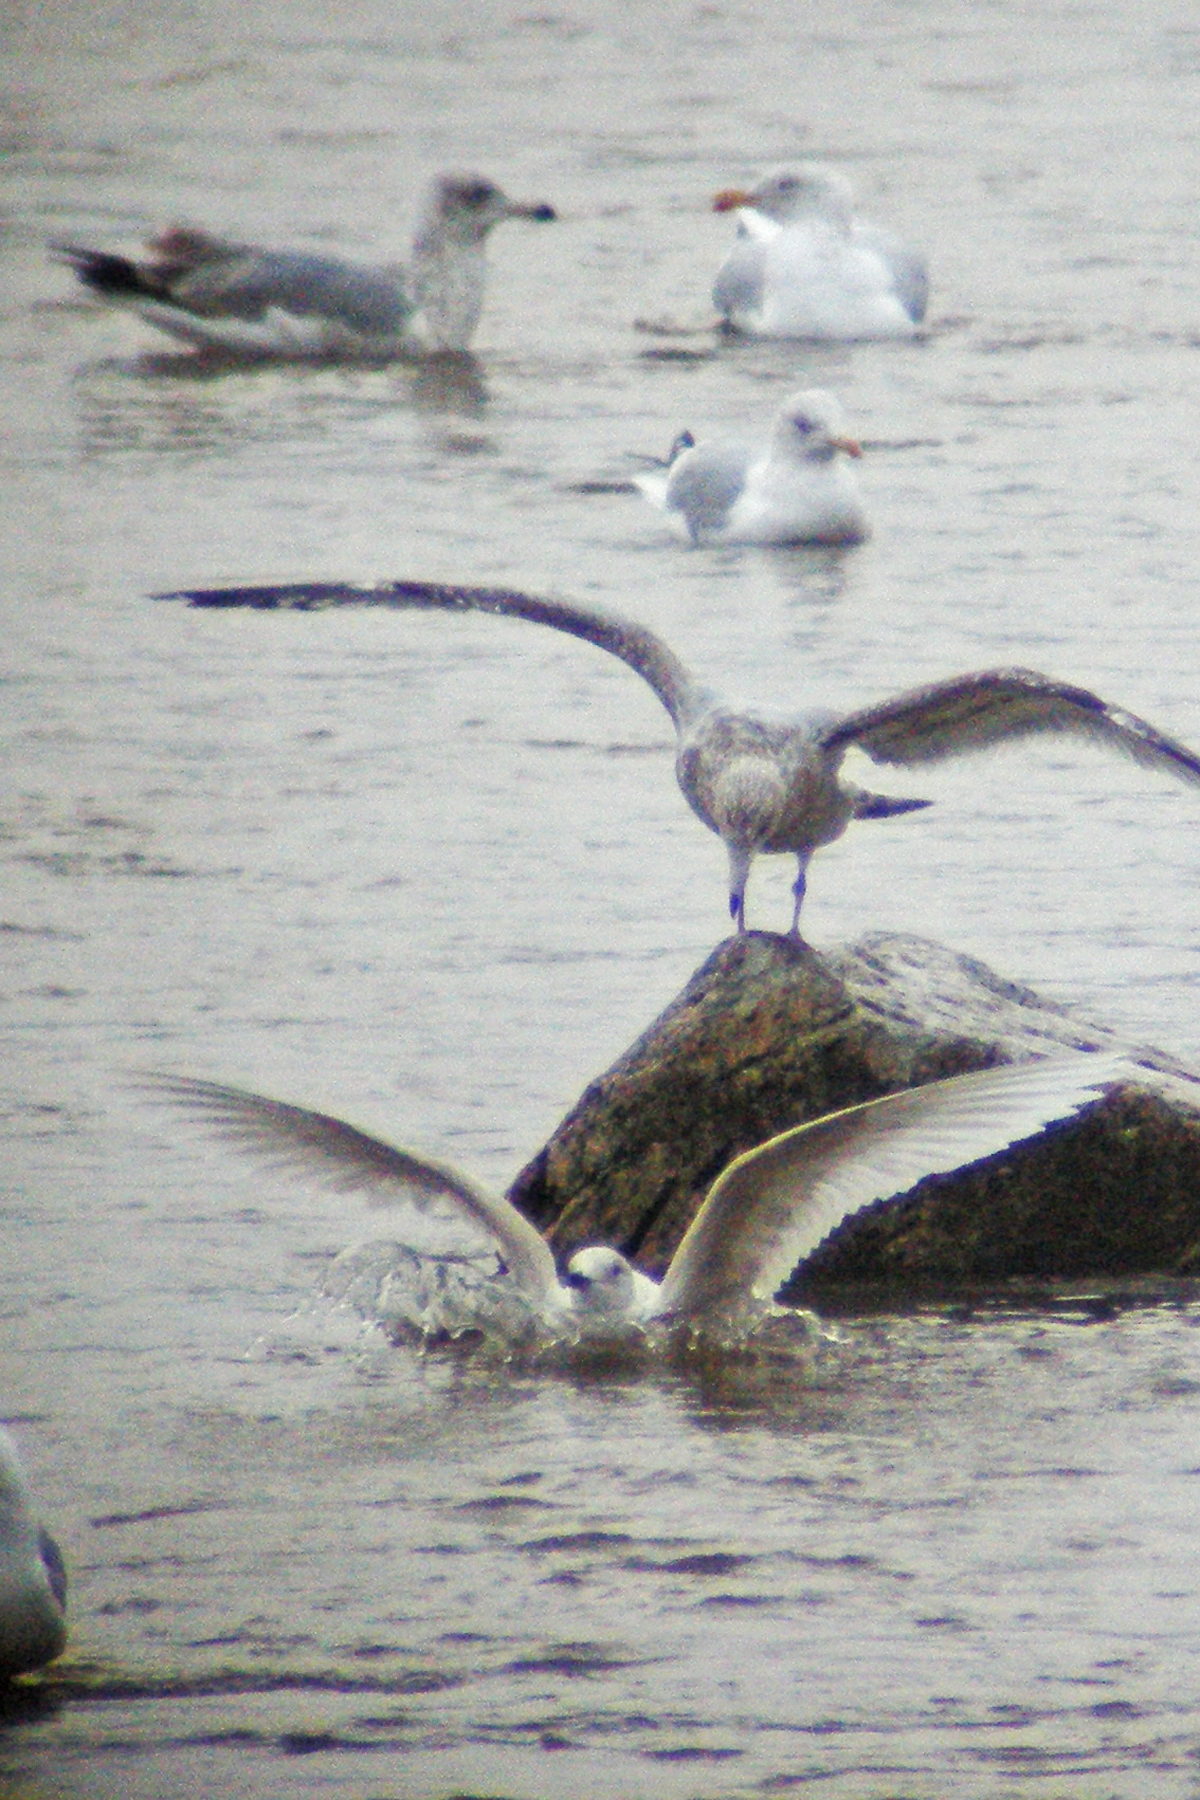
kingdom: Animalia
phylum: Chordata
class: Aves
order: Charadriiformes
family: Laridae
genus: Larus
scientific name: Larus glaucoides
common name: Iceland gull
